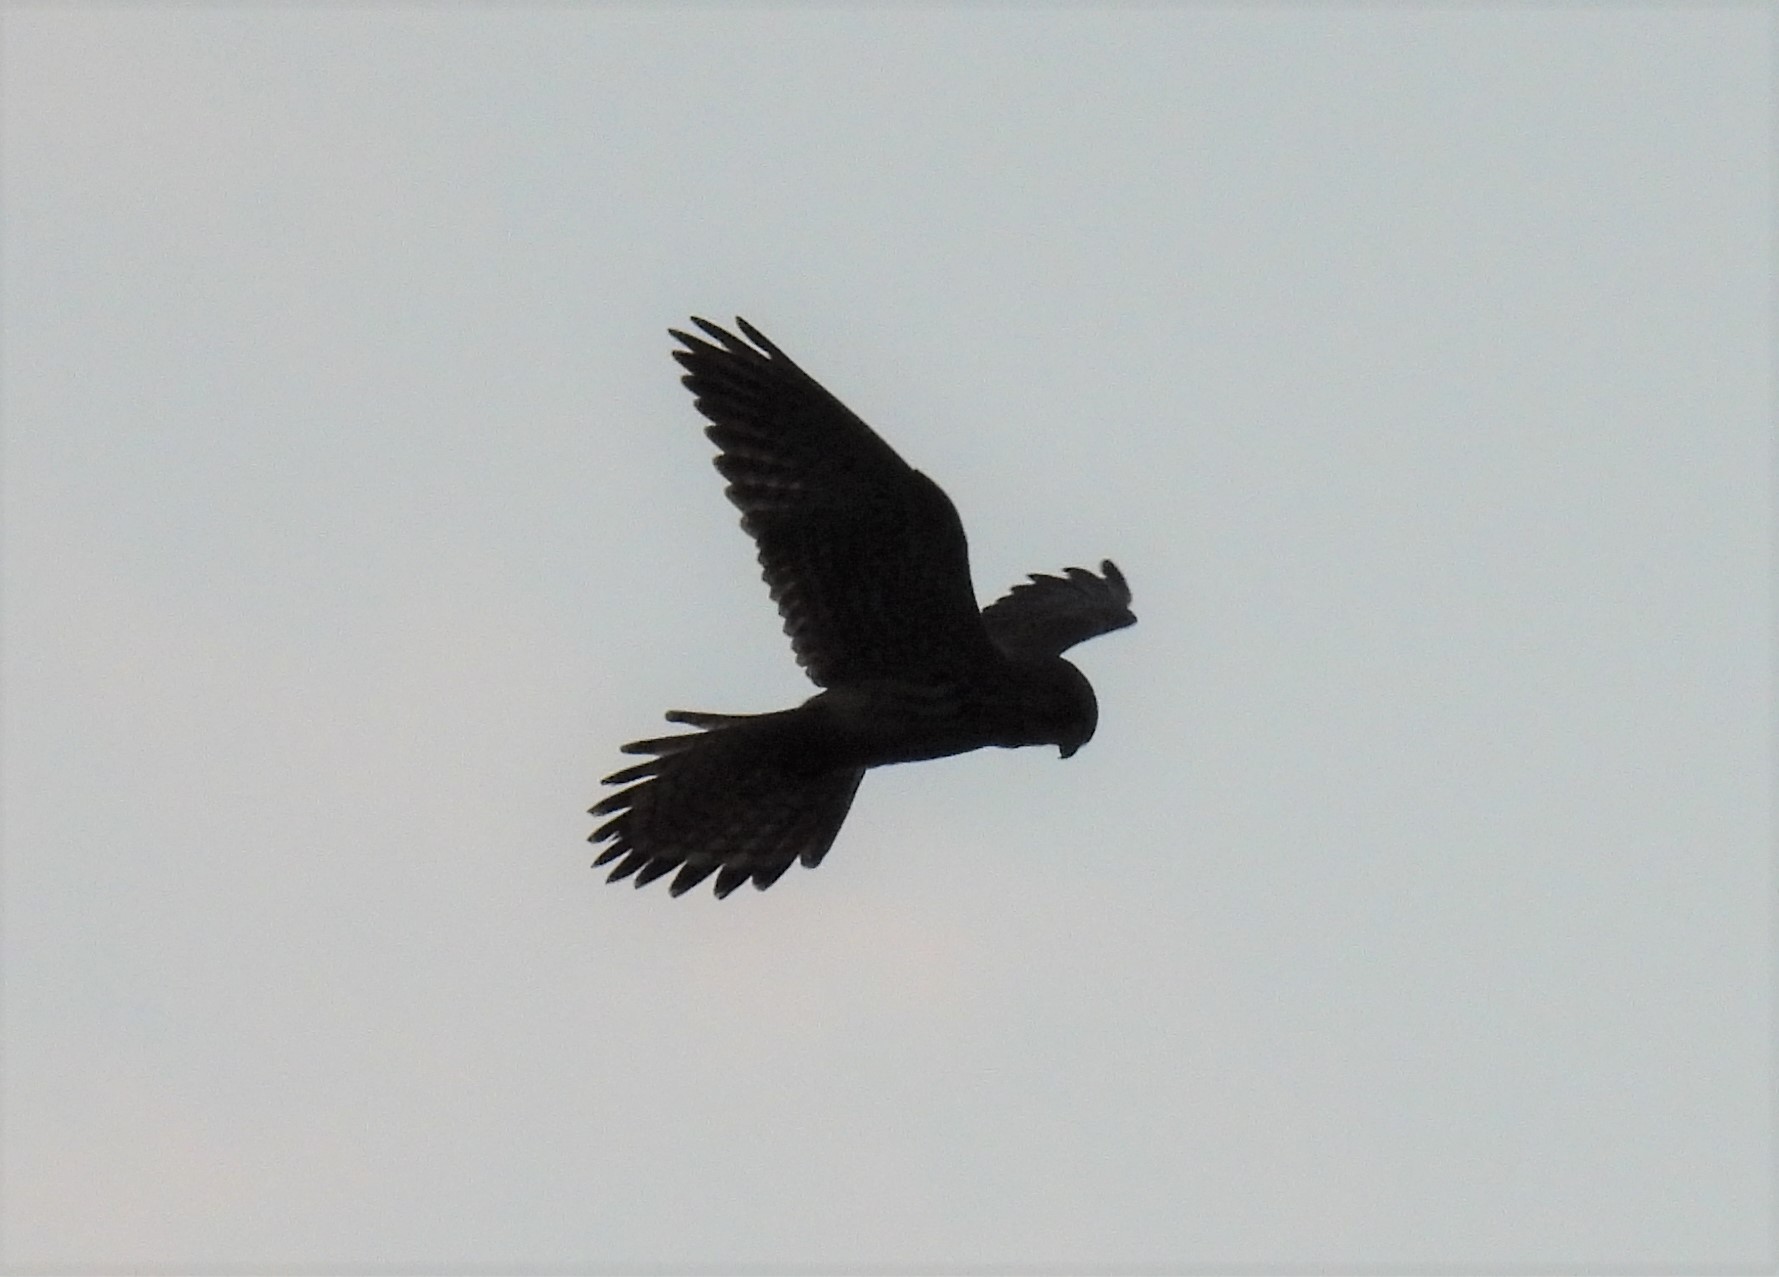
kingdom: Animalia
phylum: Chordata
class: Aves
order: Falconiformes
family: Falconidae
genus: Falco
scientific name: Falco tinnunculus
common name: Common kestrel
